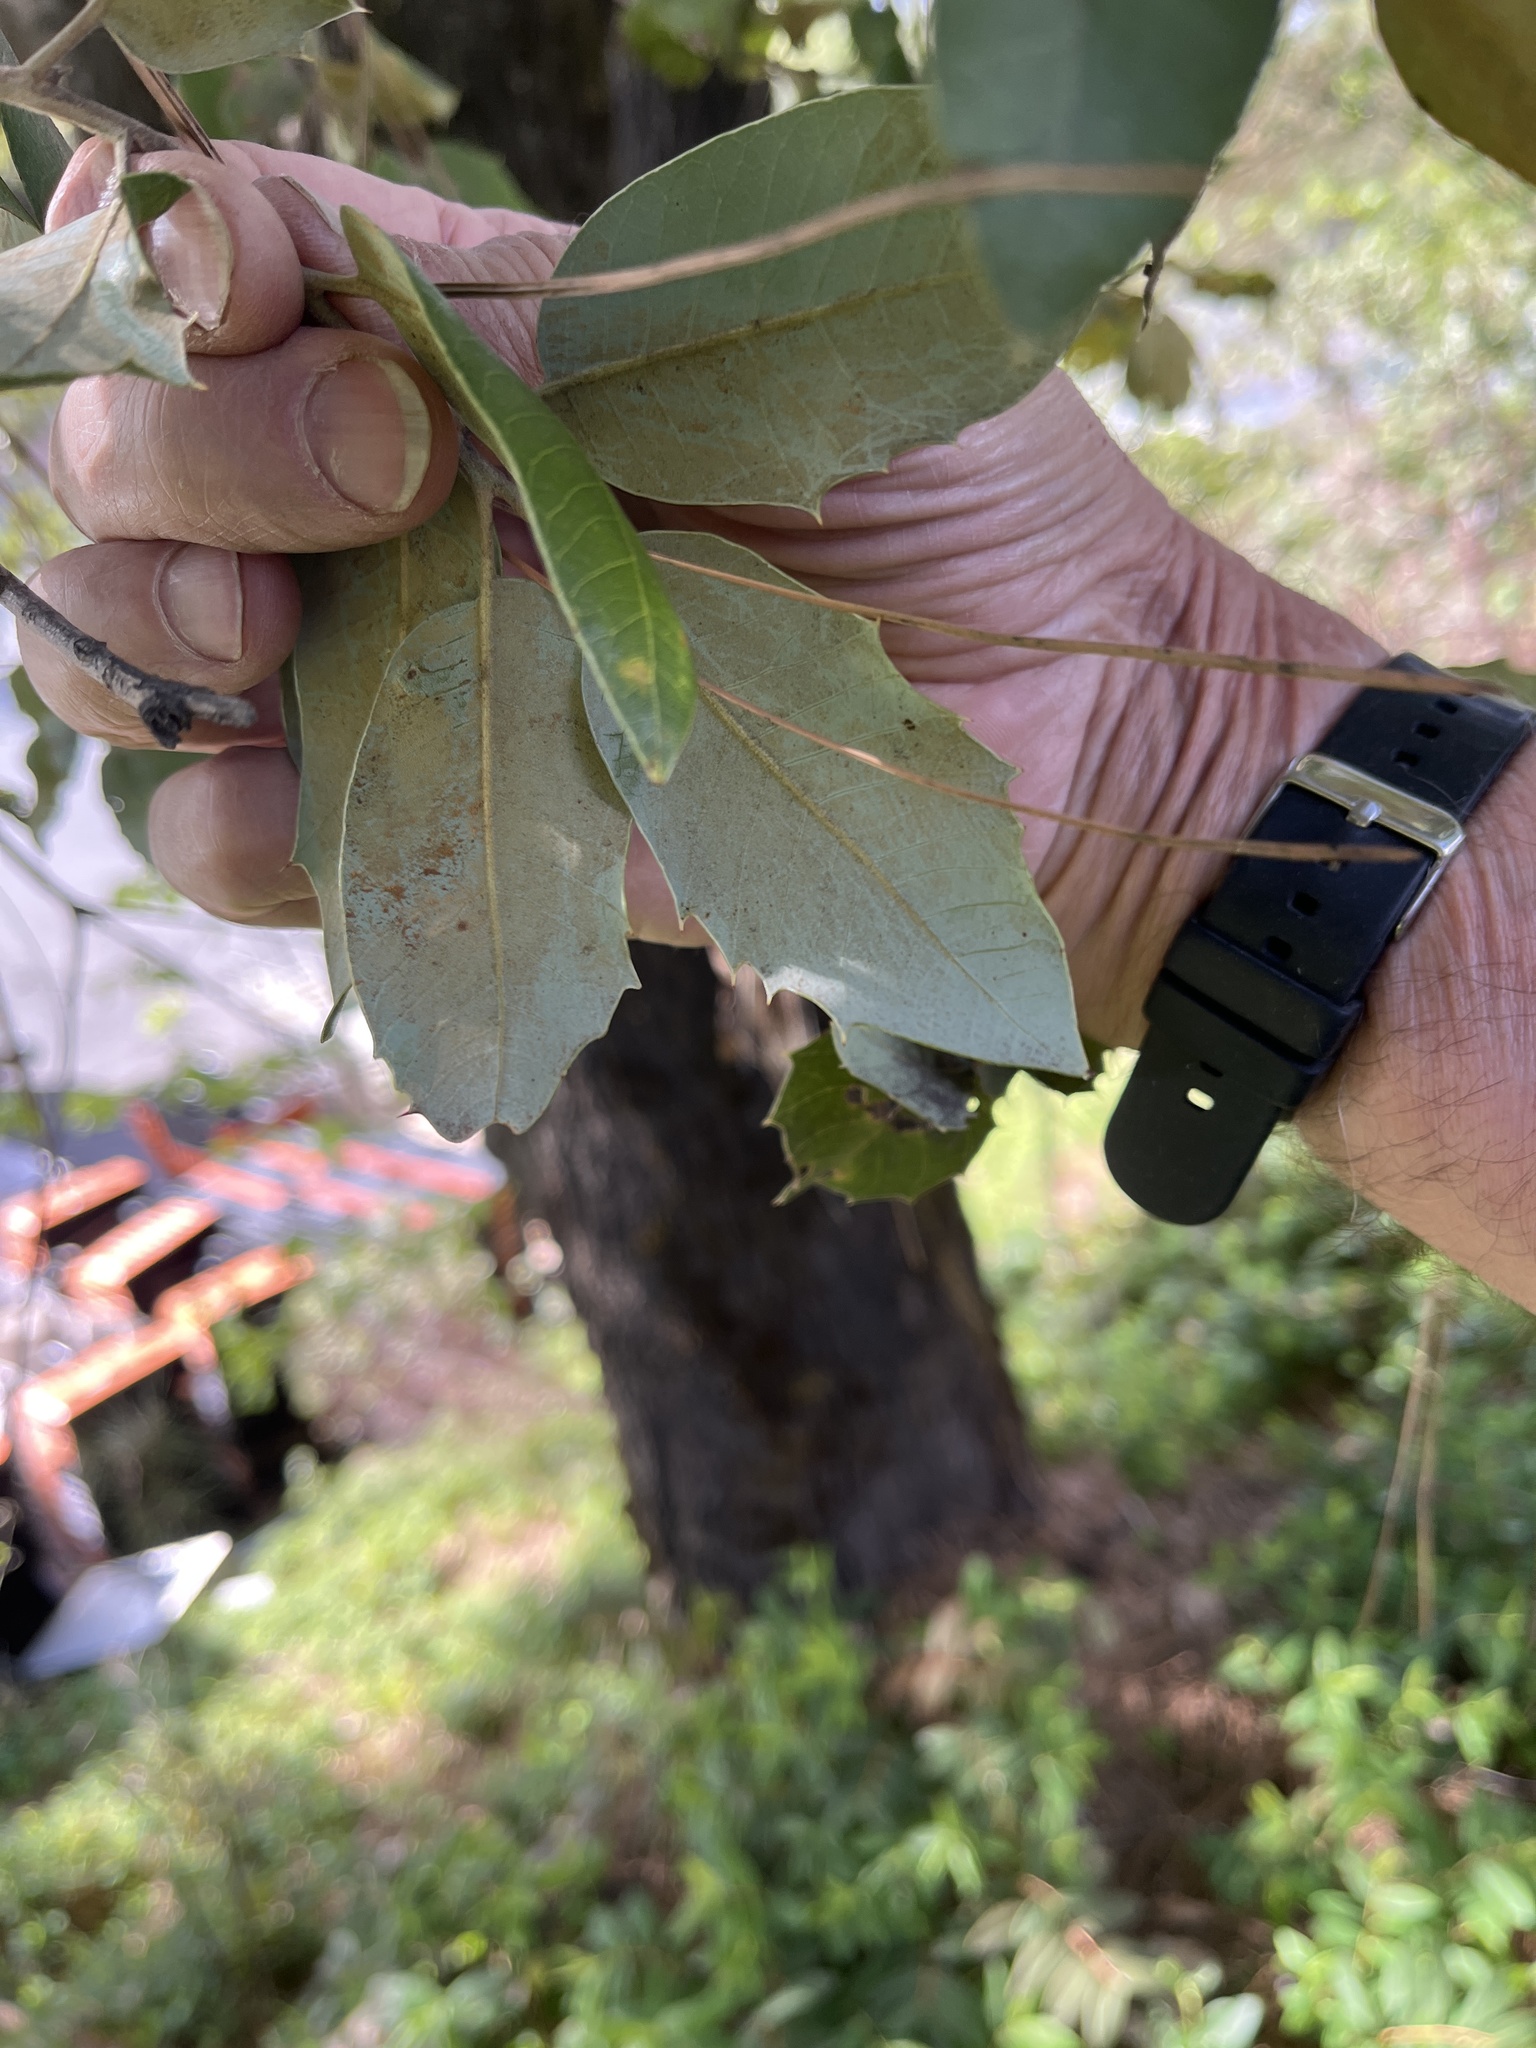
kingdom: Plantae
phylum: Tracheophyta
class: Magnoliopsida
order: Fagales
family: Fagaceae
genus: Quercus
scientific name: Quercus chrysolepis
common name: Canyon live oak
